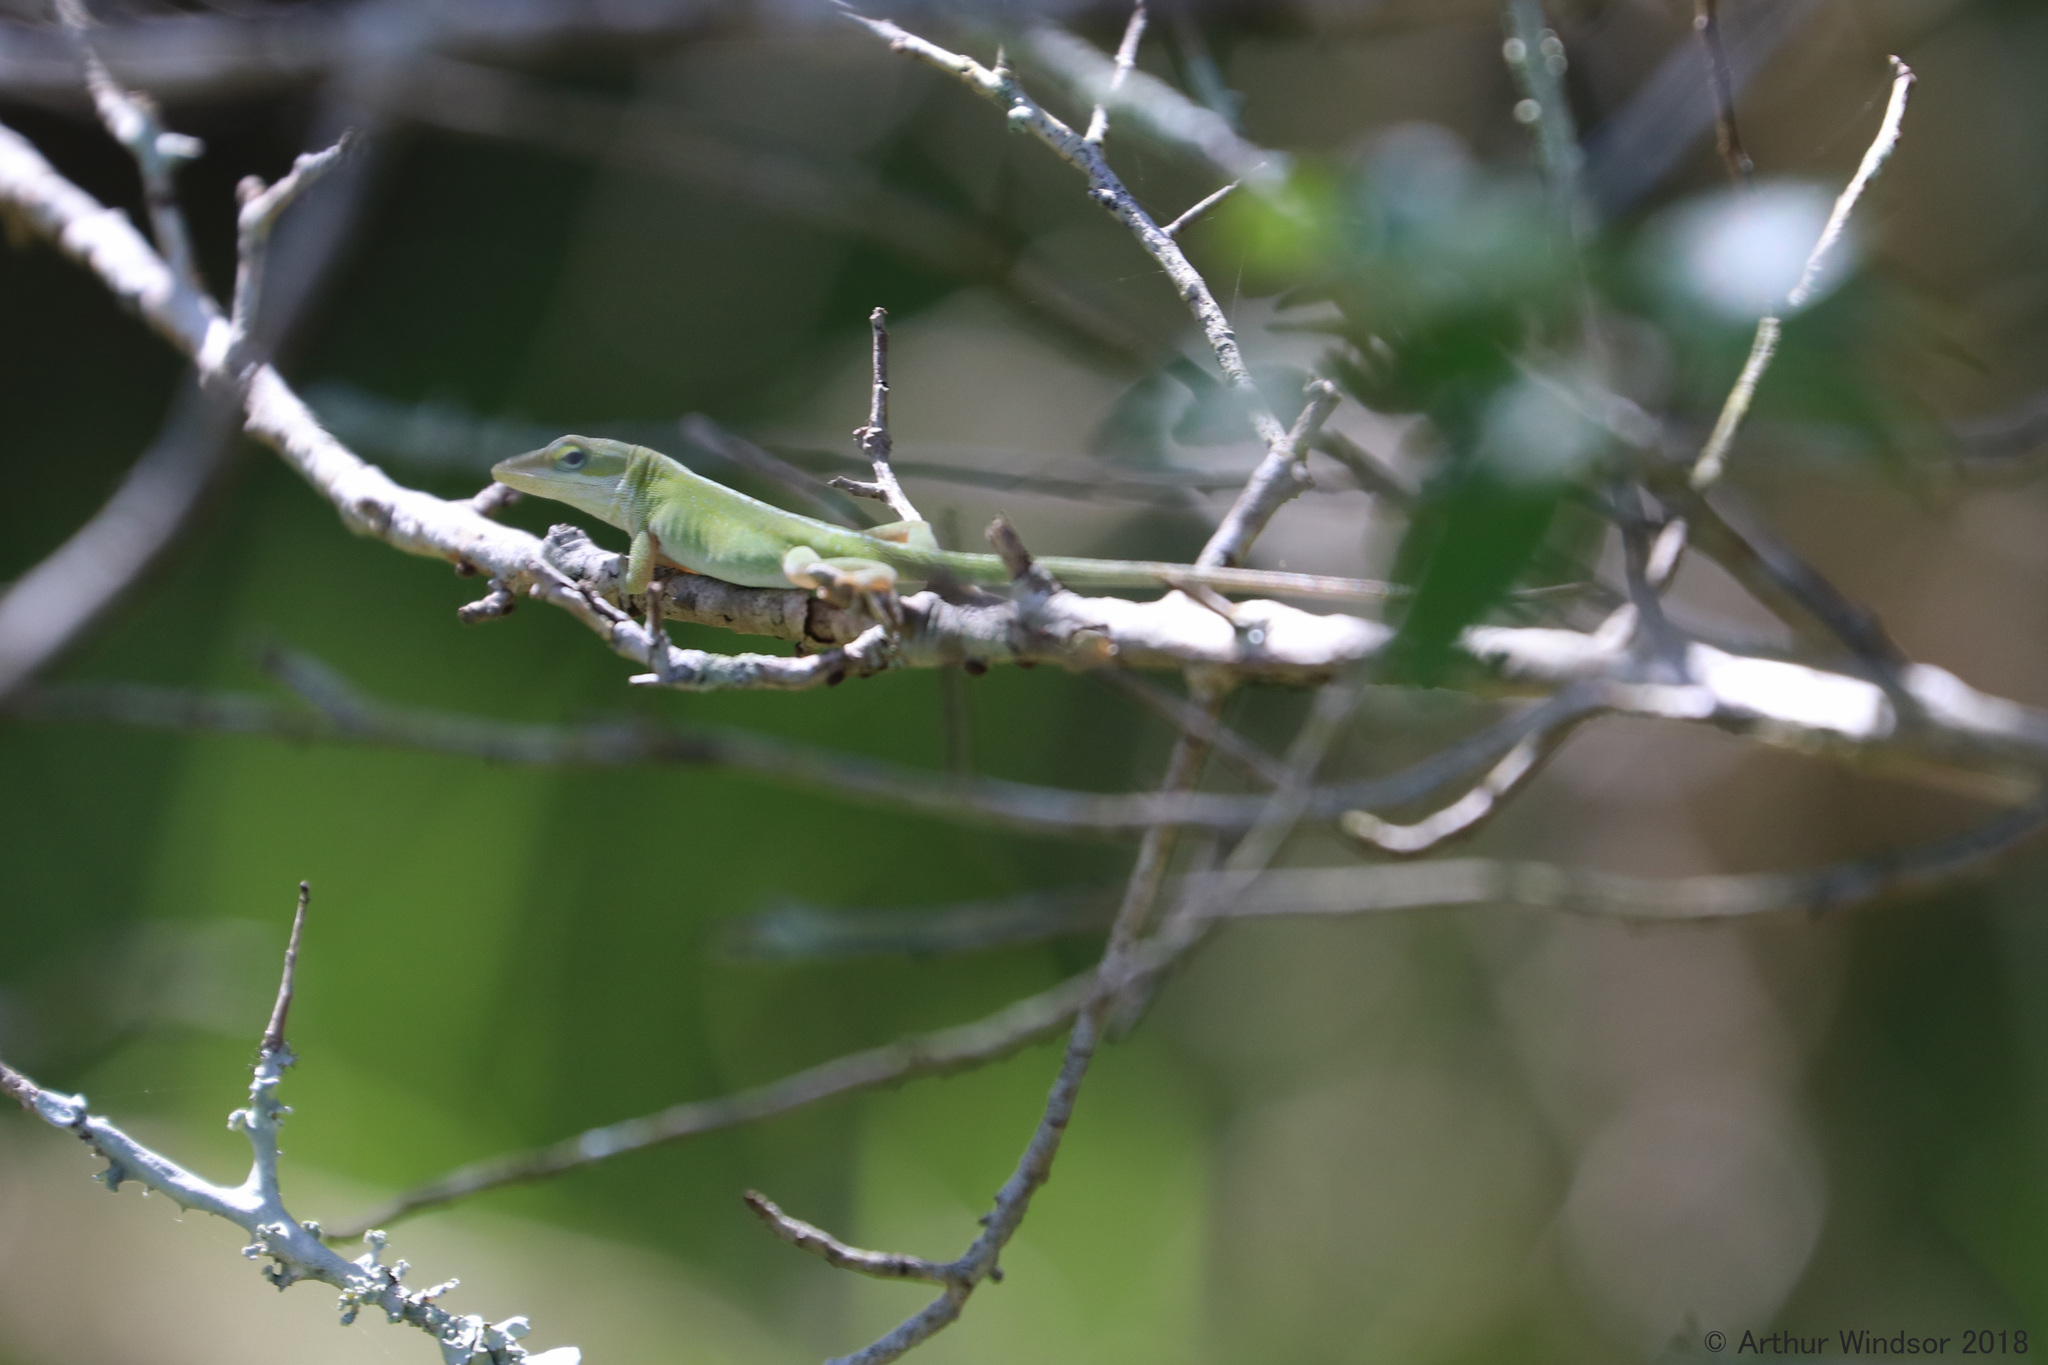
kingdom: Animalia
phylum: Chordata
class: Squamata
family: Dactyloidae
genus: Anolis
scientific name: Anolis carolinensis
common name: Green anole
